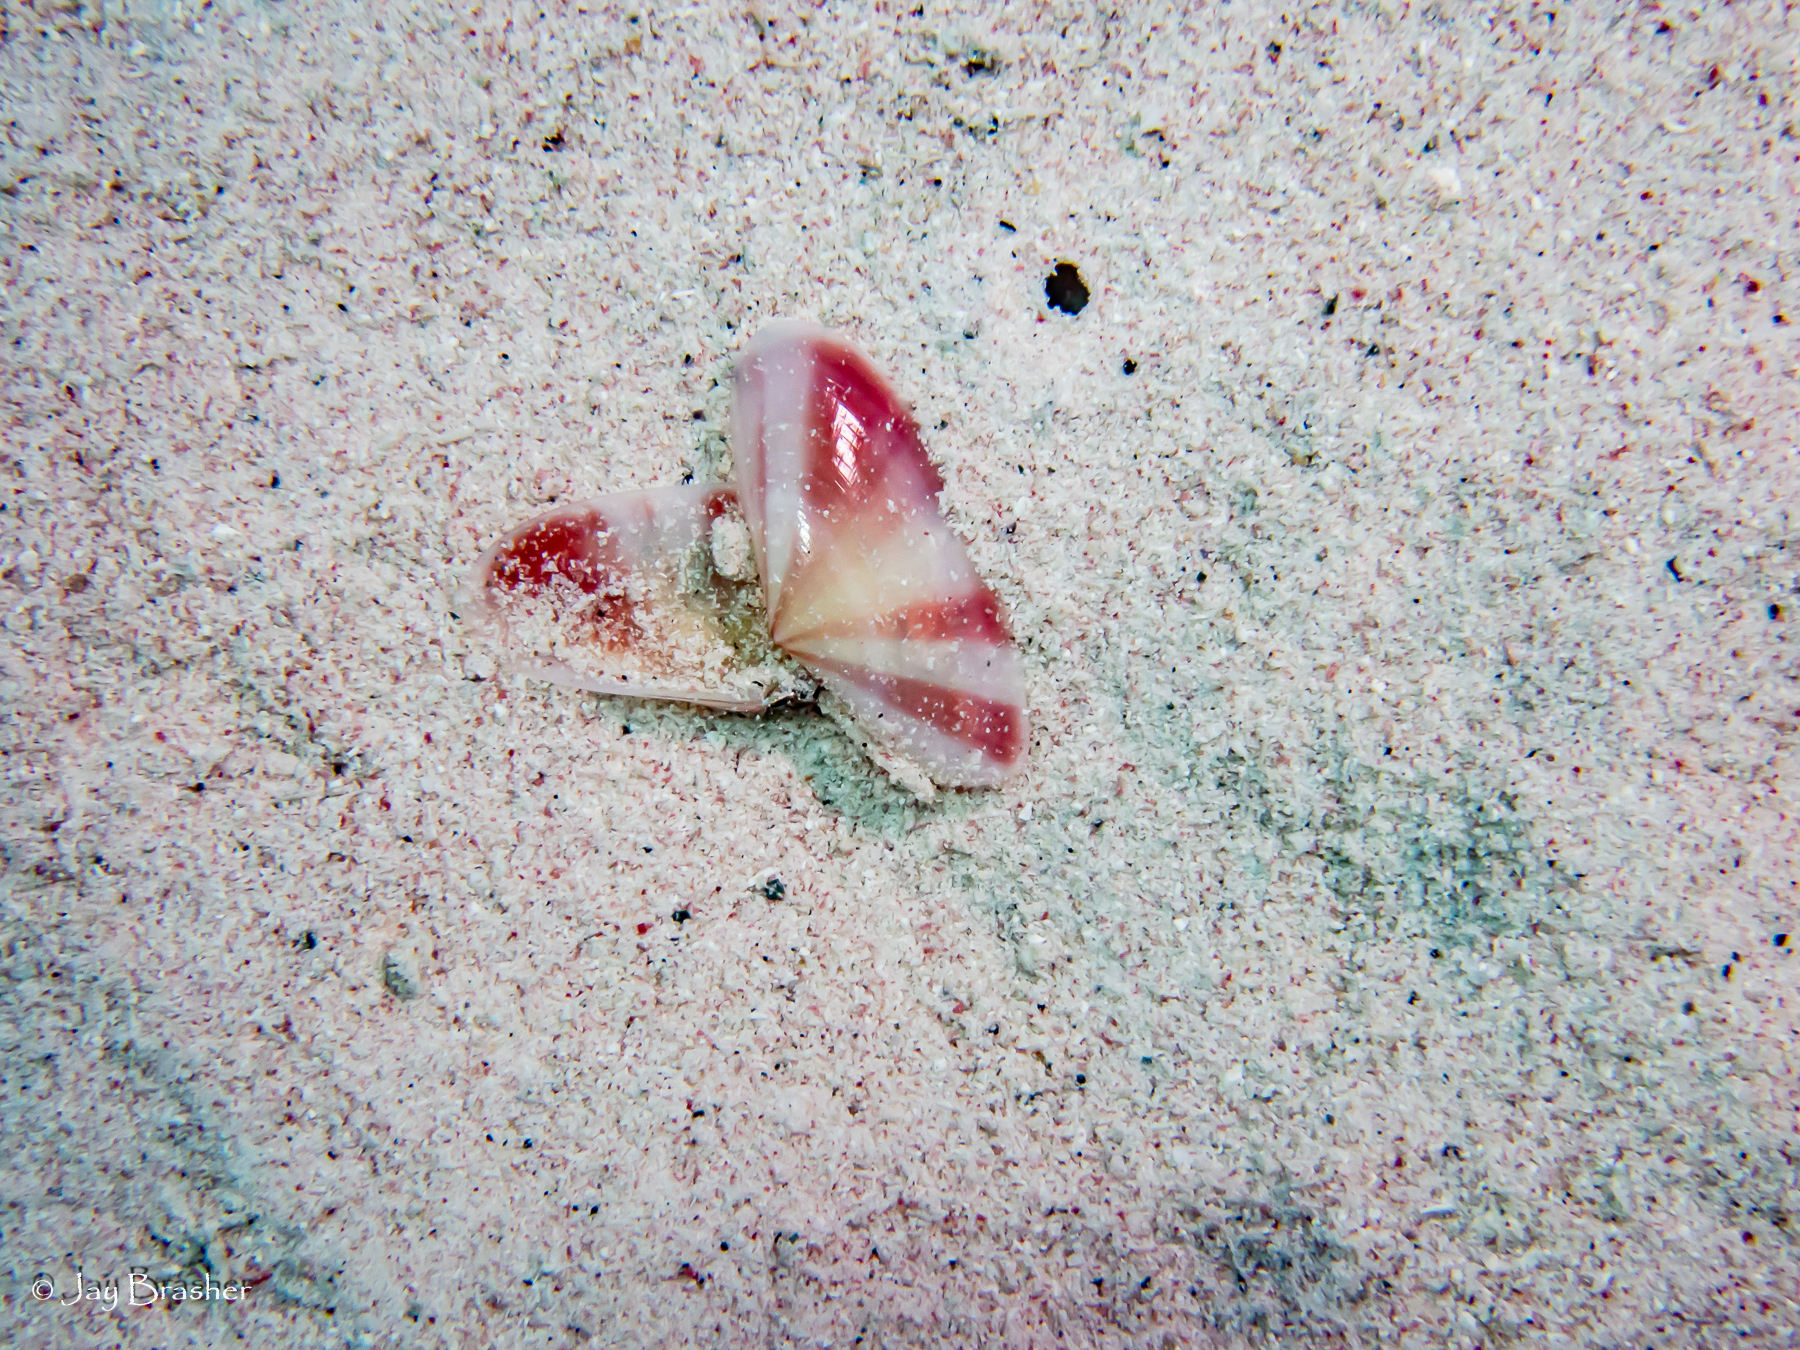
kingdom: Animalia
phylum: Mollusca
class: Bivalvia
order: Cardiida
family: Tellinidae
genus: Tellina
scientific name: Tellina radiata
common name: Sunrise tellin
